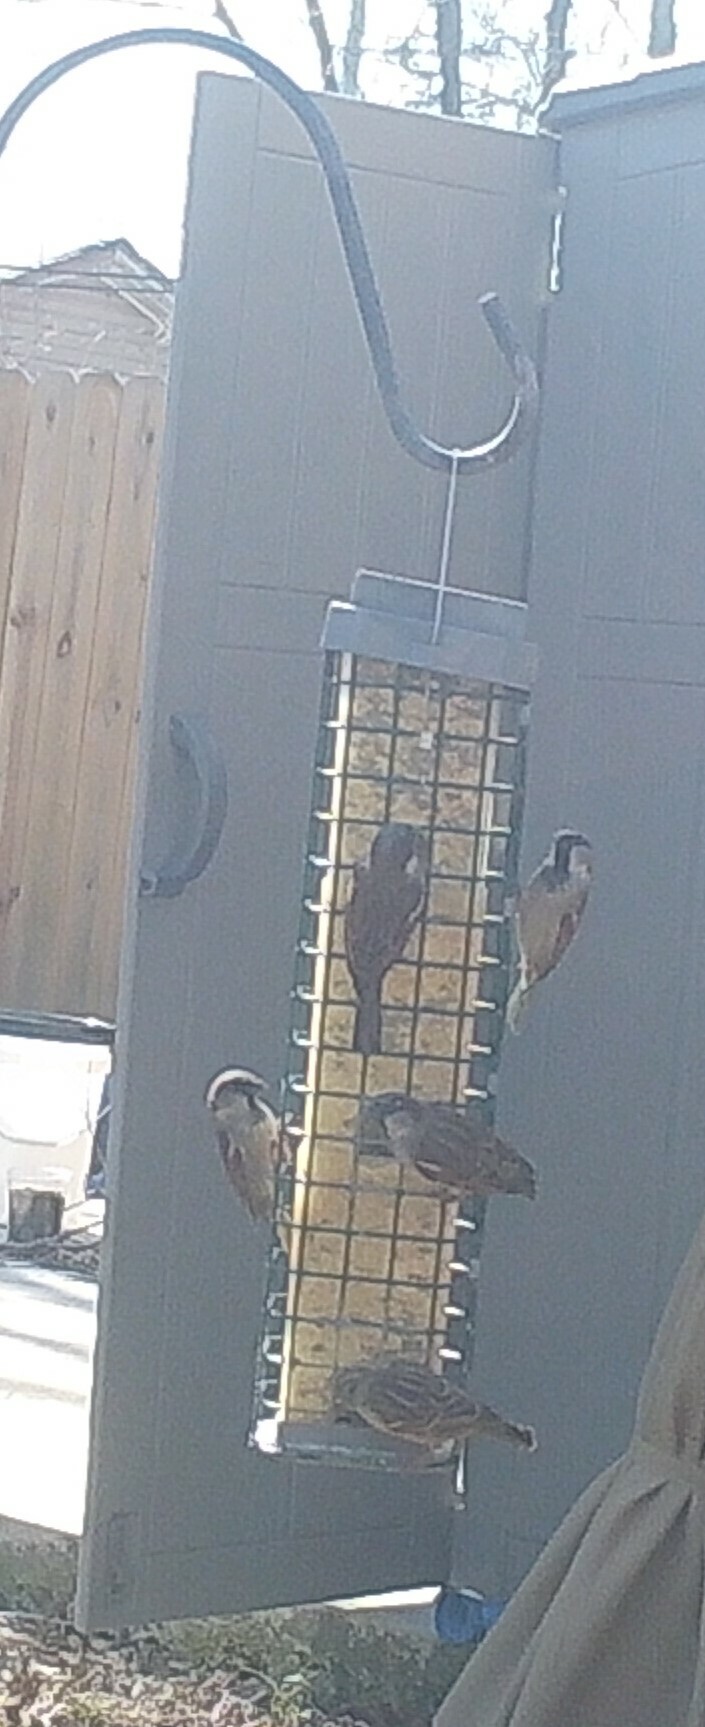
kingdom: Animalia
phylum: Chordata
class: Aves
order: Passeriformes
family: Passeridae
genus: Passer
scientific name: Passer domesticus
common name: House sparrow
